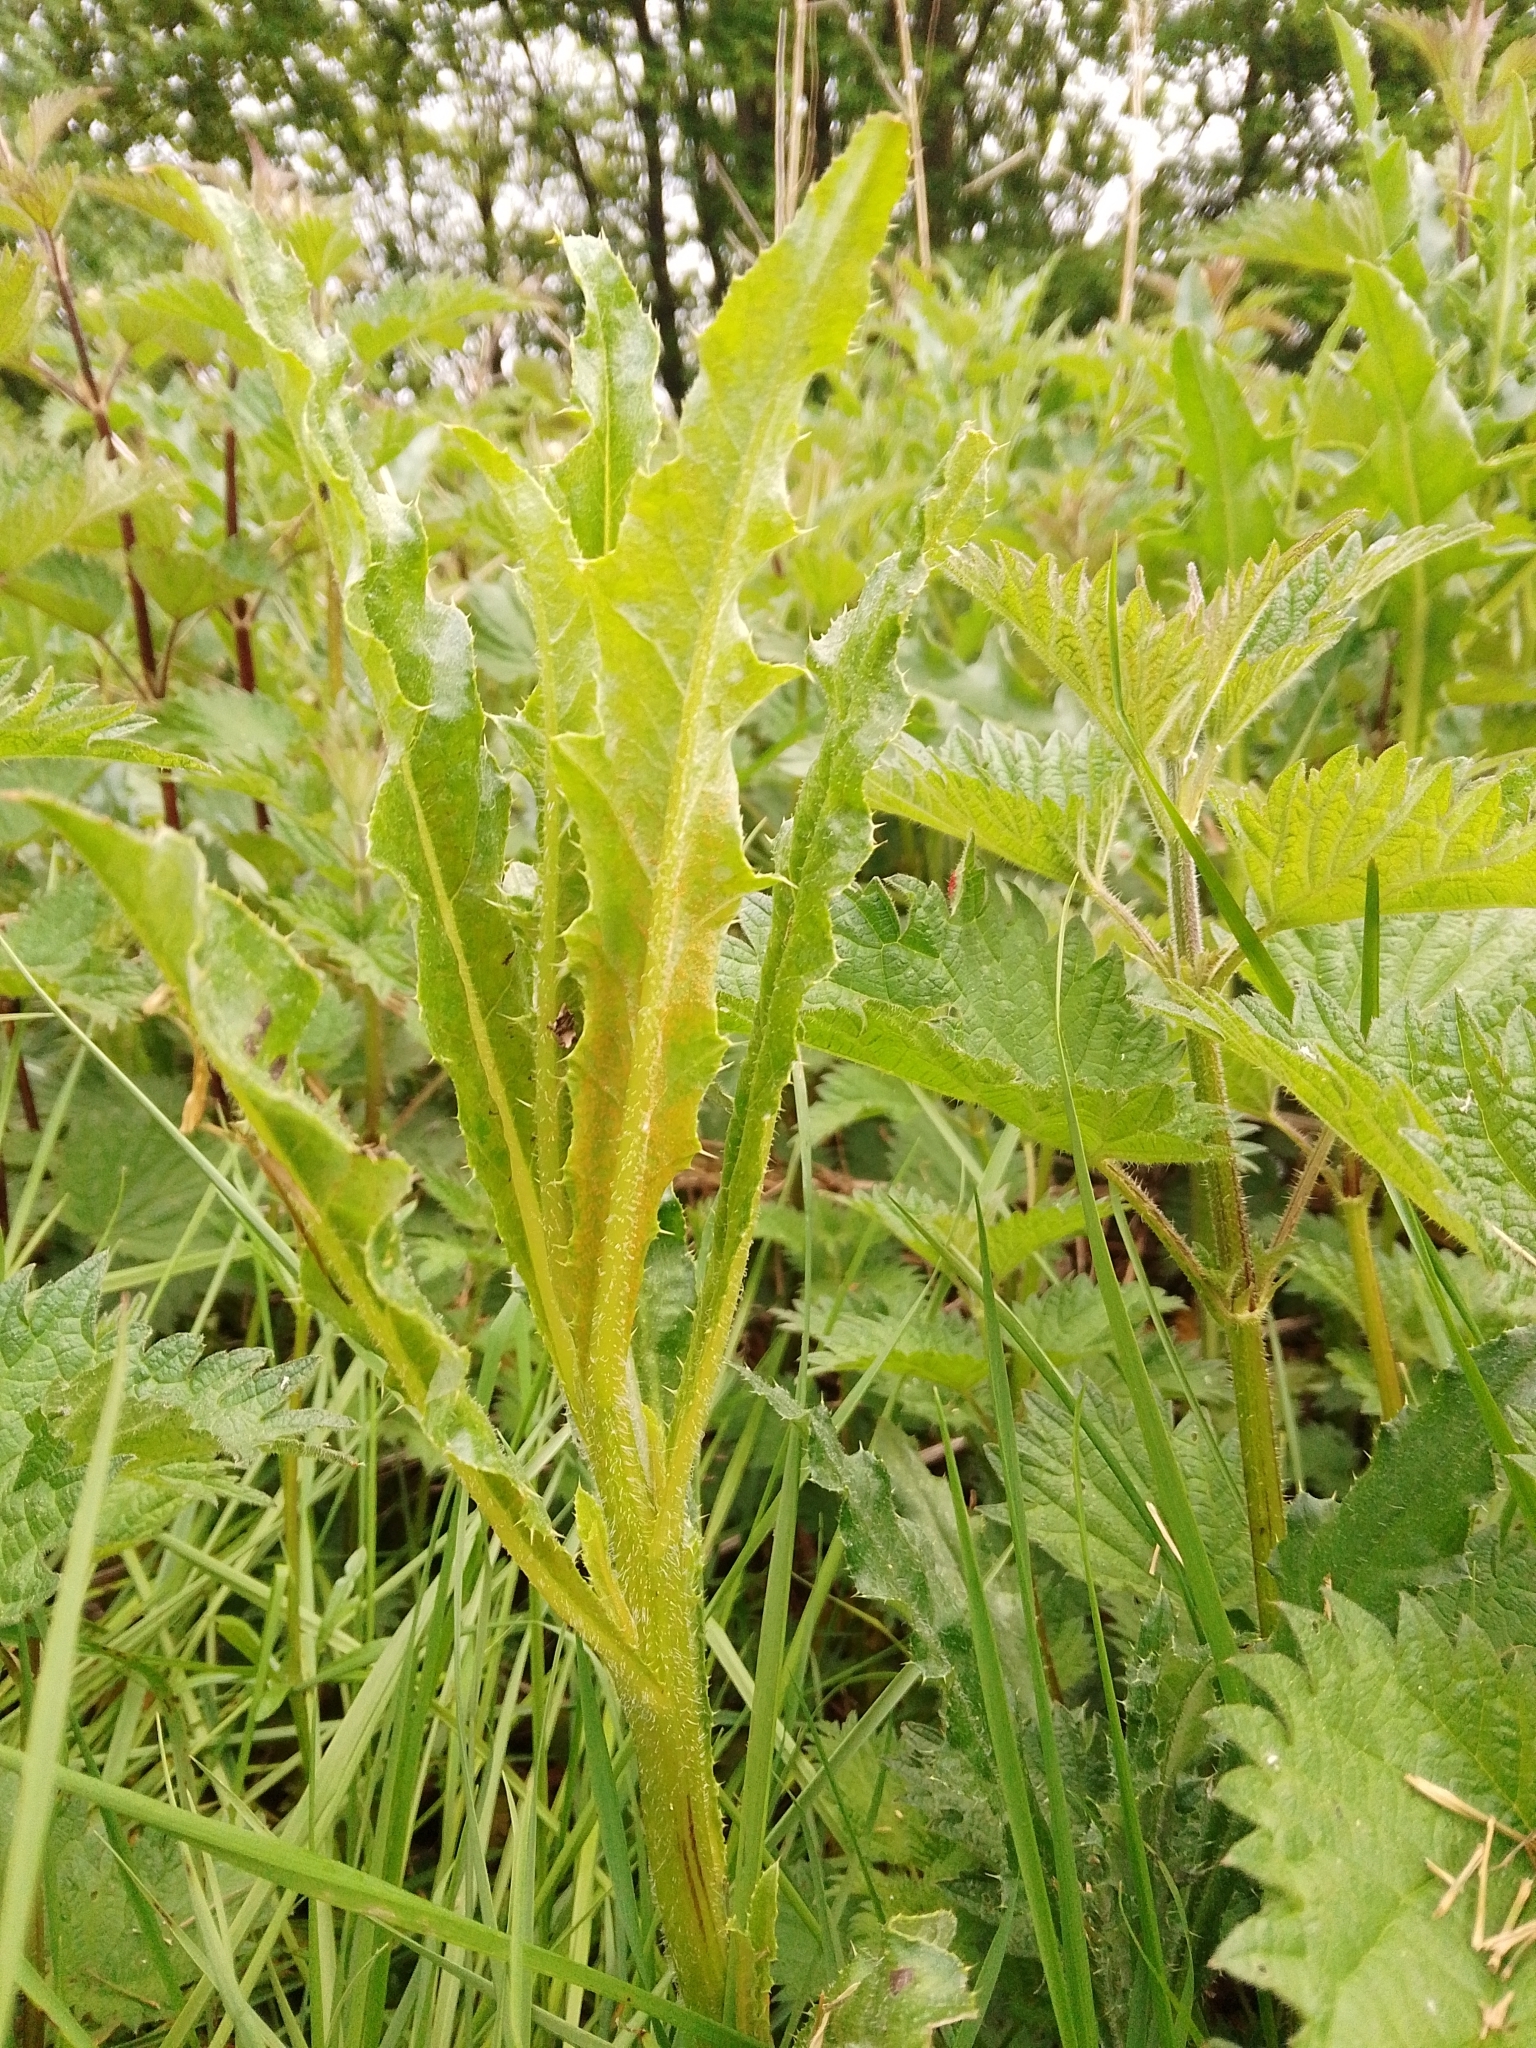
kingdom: Fungi
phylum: Basidiomycota
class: Pucciniomycetes
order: Pucciniales
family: Pucciniaceae
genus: Puccinia
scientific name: Puccinia suaveolens
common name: Thistle rust
